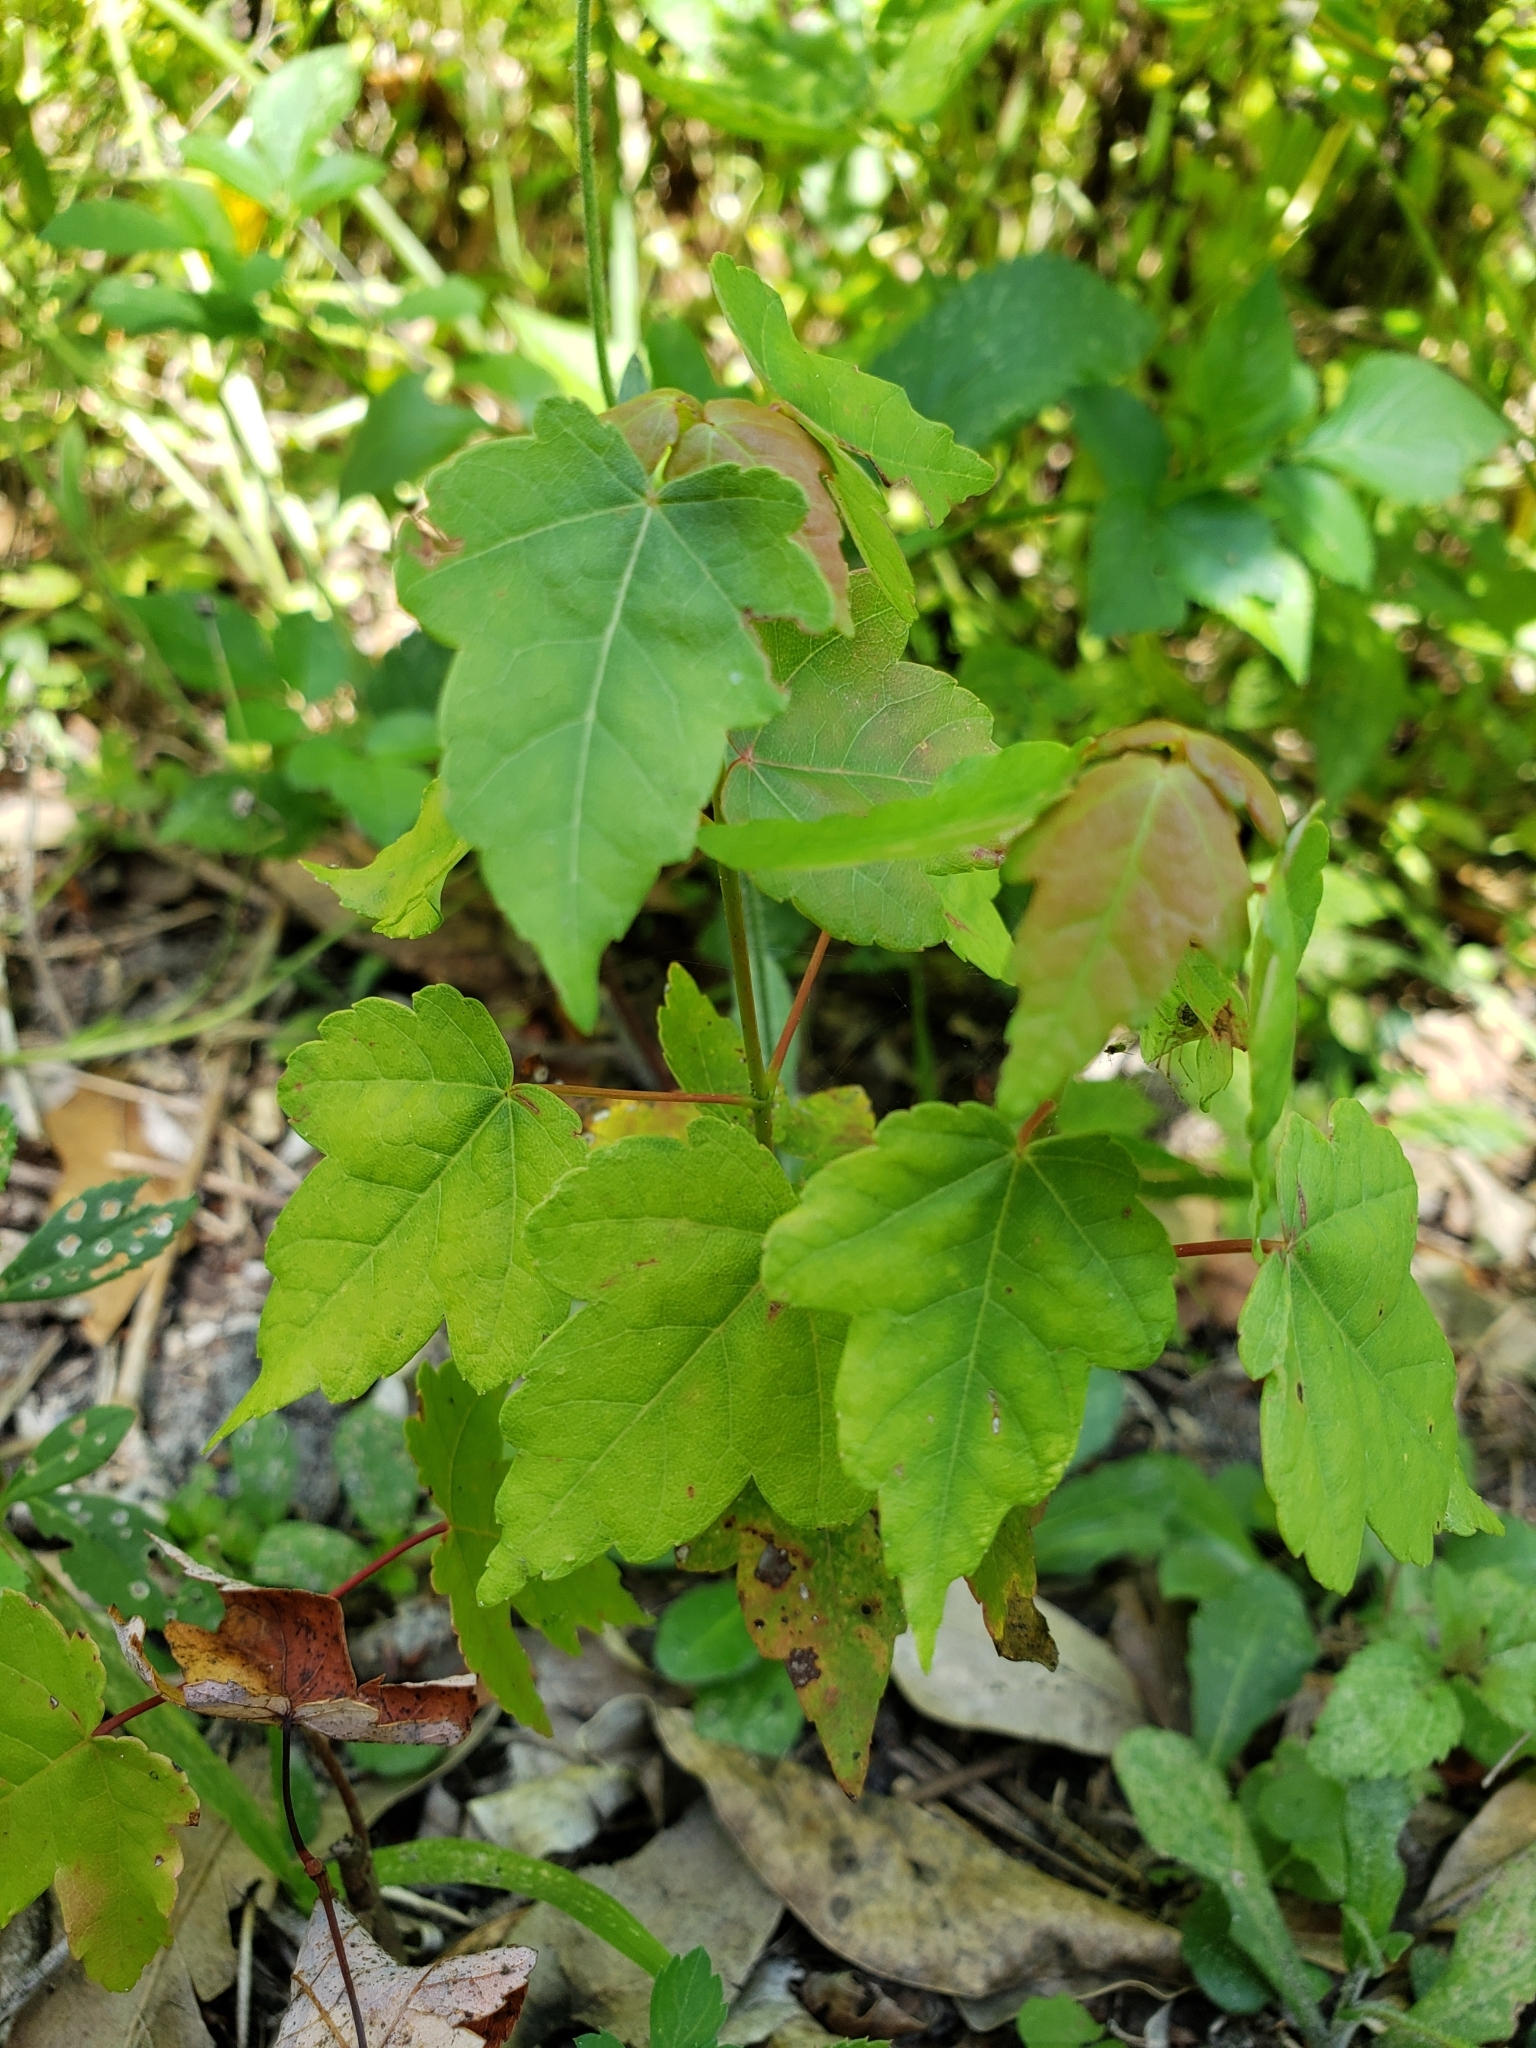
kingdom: Plantae
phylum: Tracheophyta
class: Magnoliopsida
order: Sapindales
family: Sapindaceae
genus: Acer
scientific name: Acer rubrum
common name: Red maple
